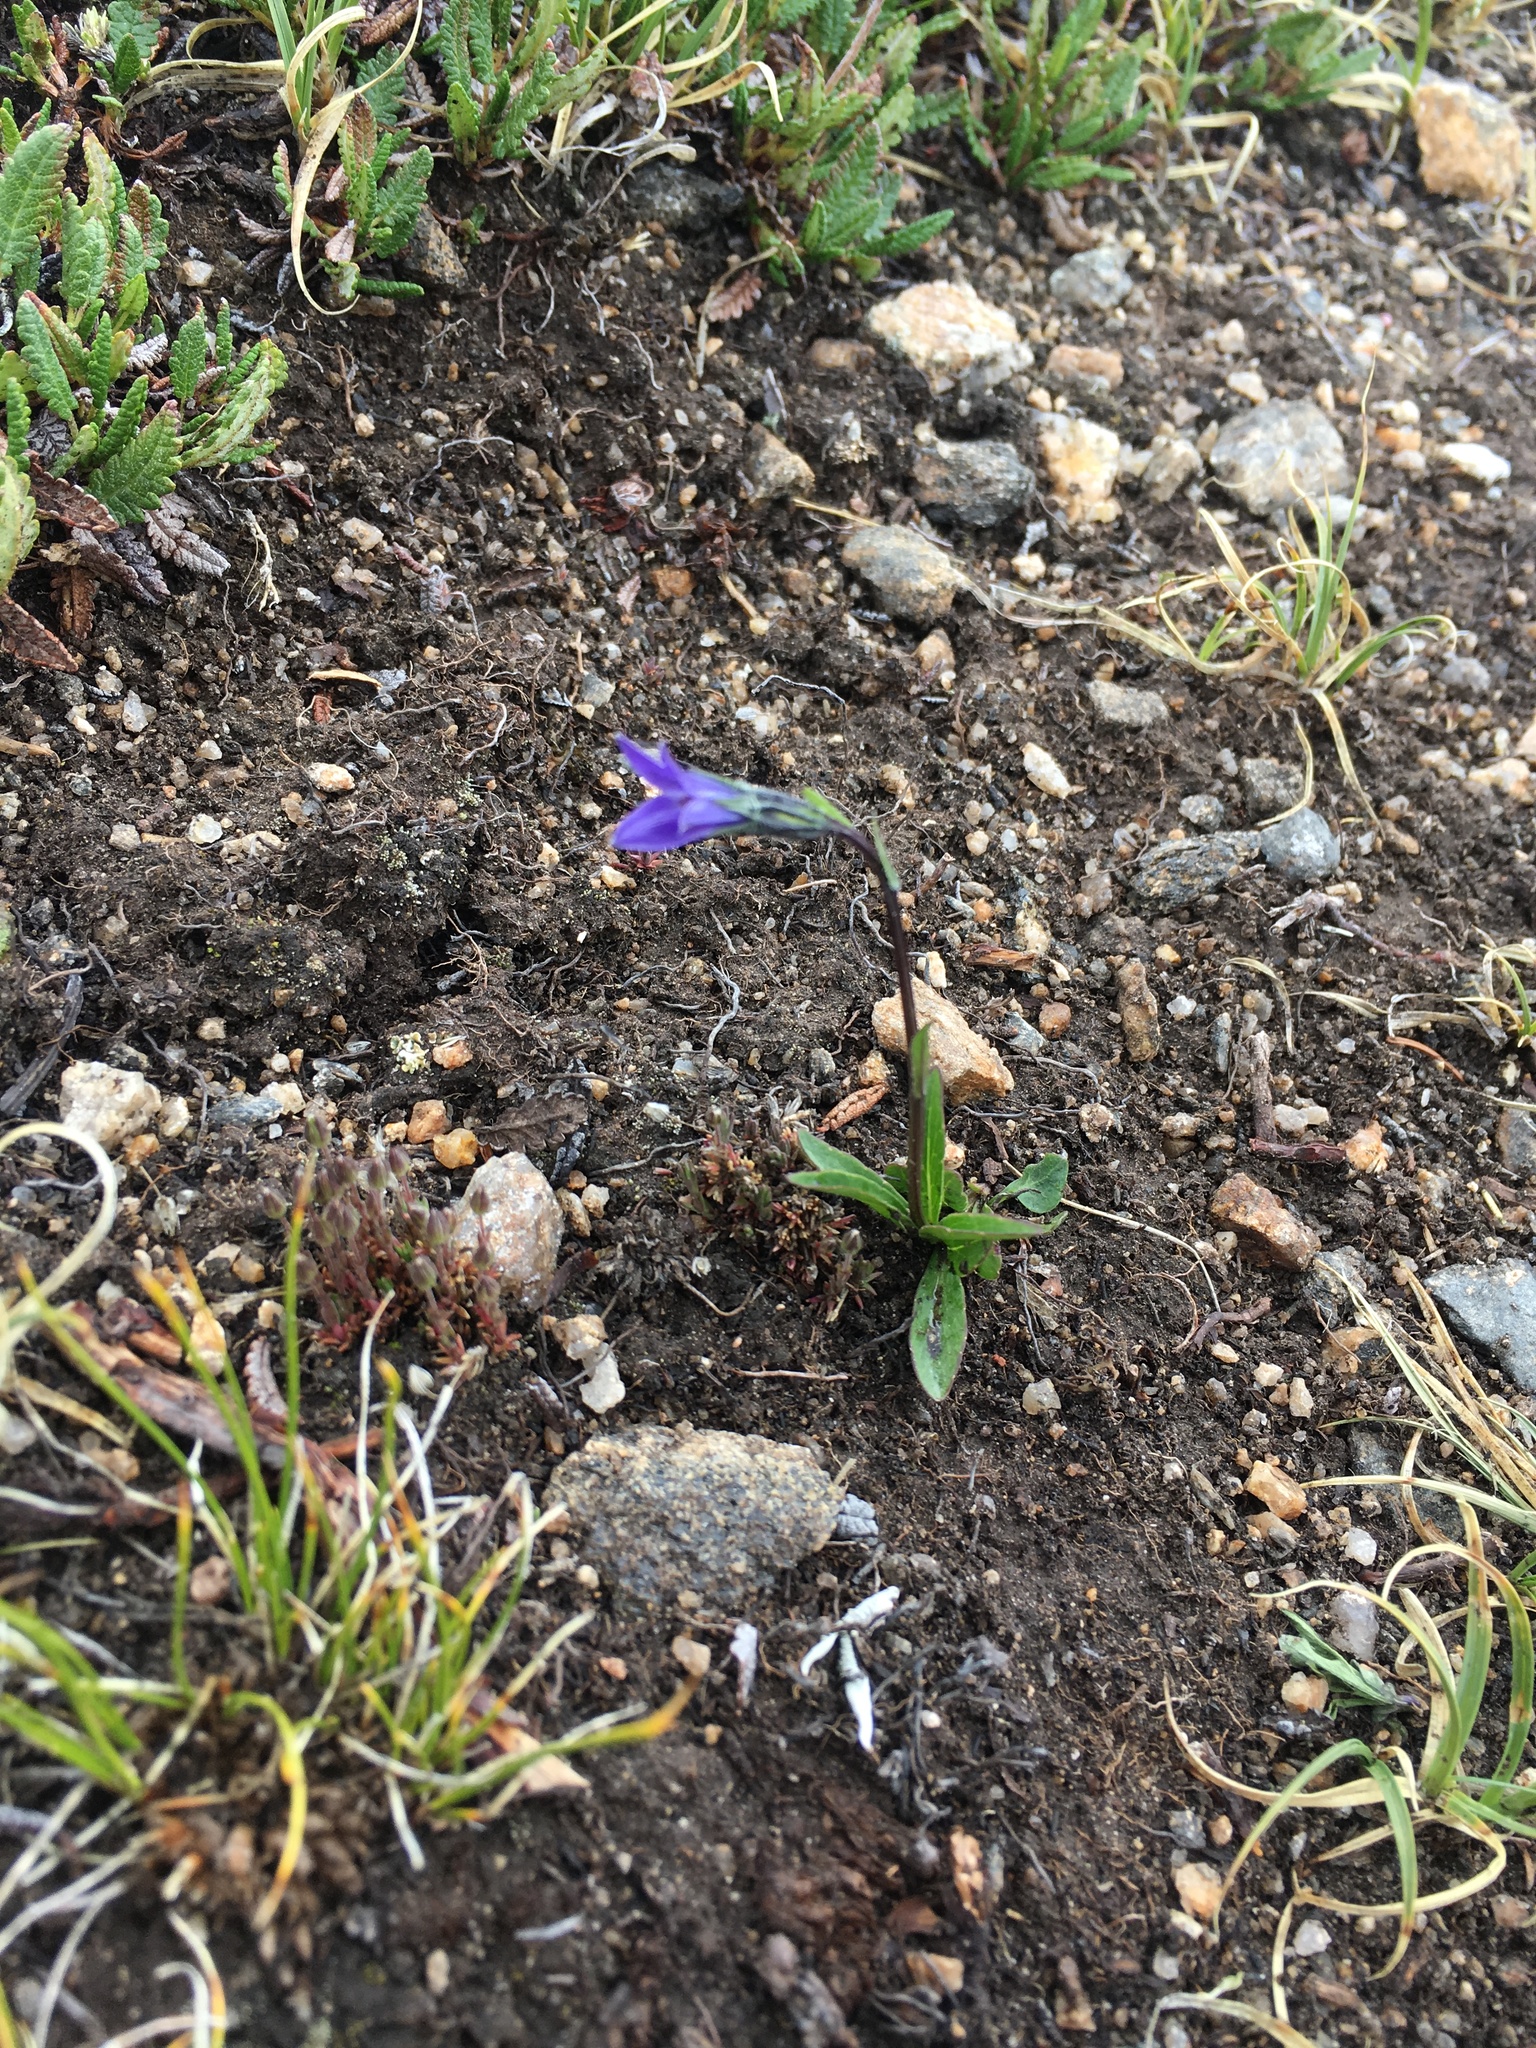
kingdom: Plantae
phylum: Tracheophyta
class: Magnoliopsida
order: Asterales
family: Campanulaceae
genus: Campanula
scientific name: Campanula uniflora
